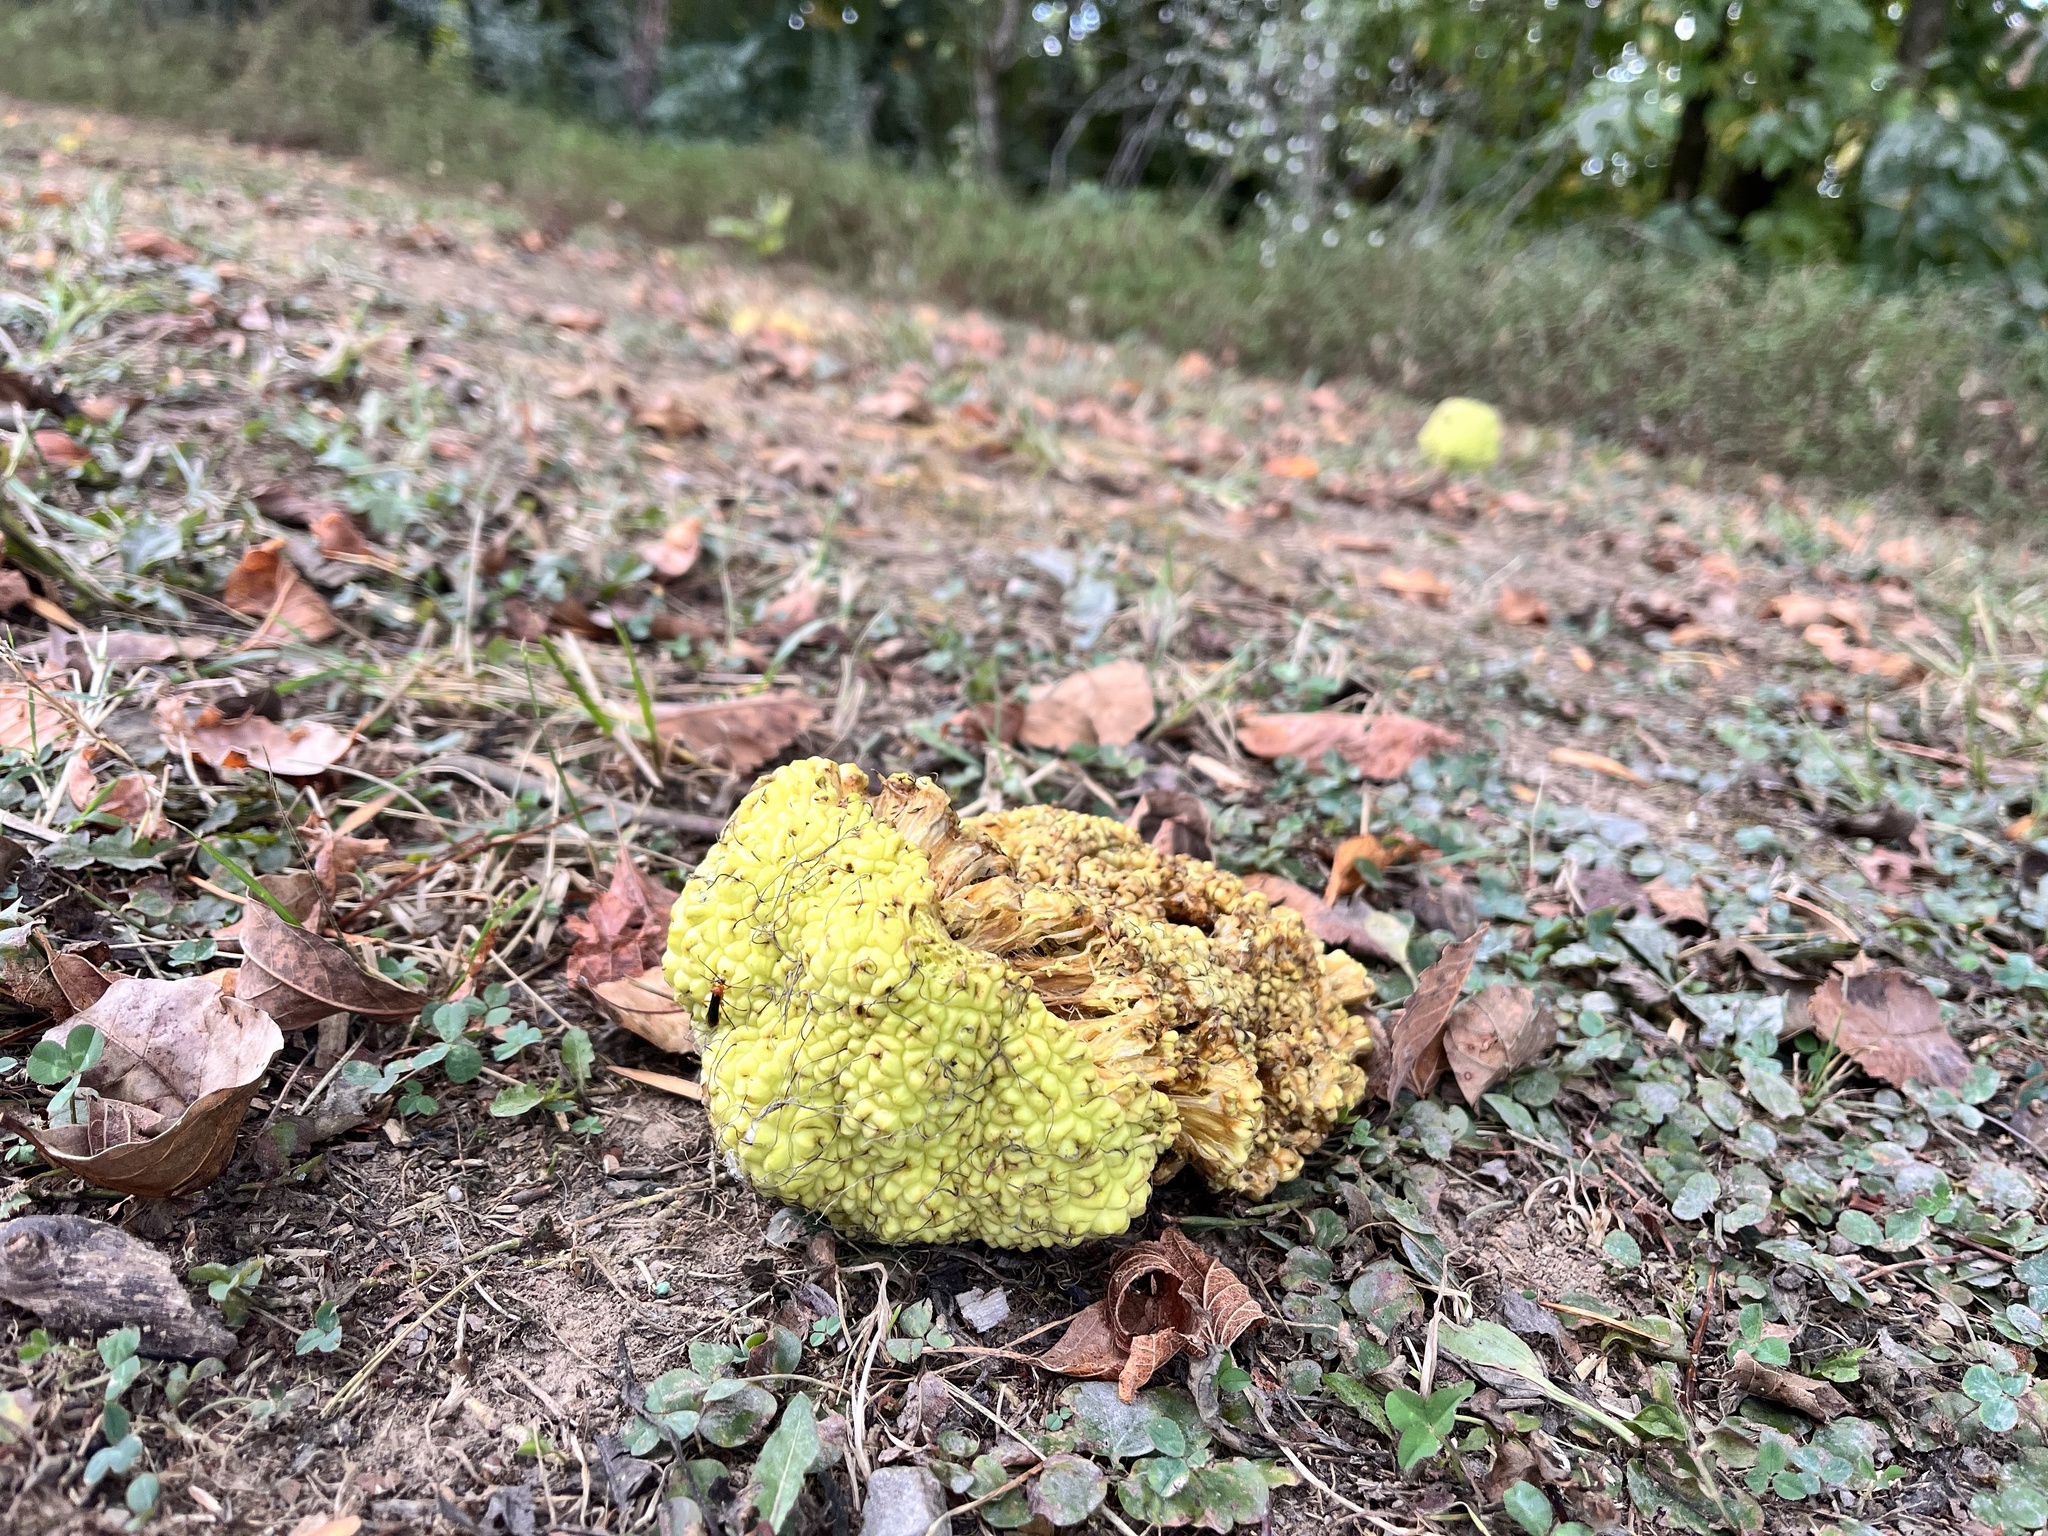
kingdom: Plantae
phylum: Tracheophyta
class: Magnoliopsida
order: Rosales
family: Moraceae
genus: Maclura
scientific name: Maclura pomifera
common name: Osage-orange
